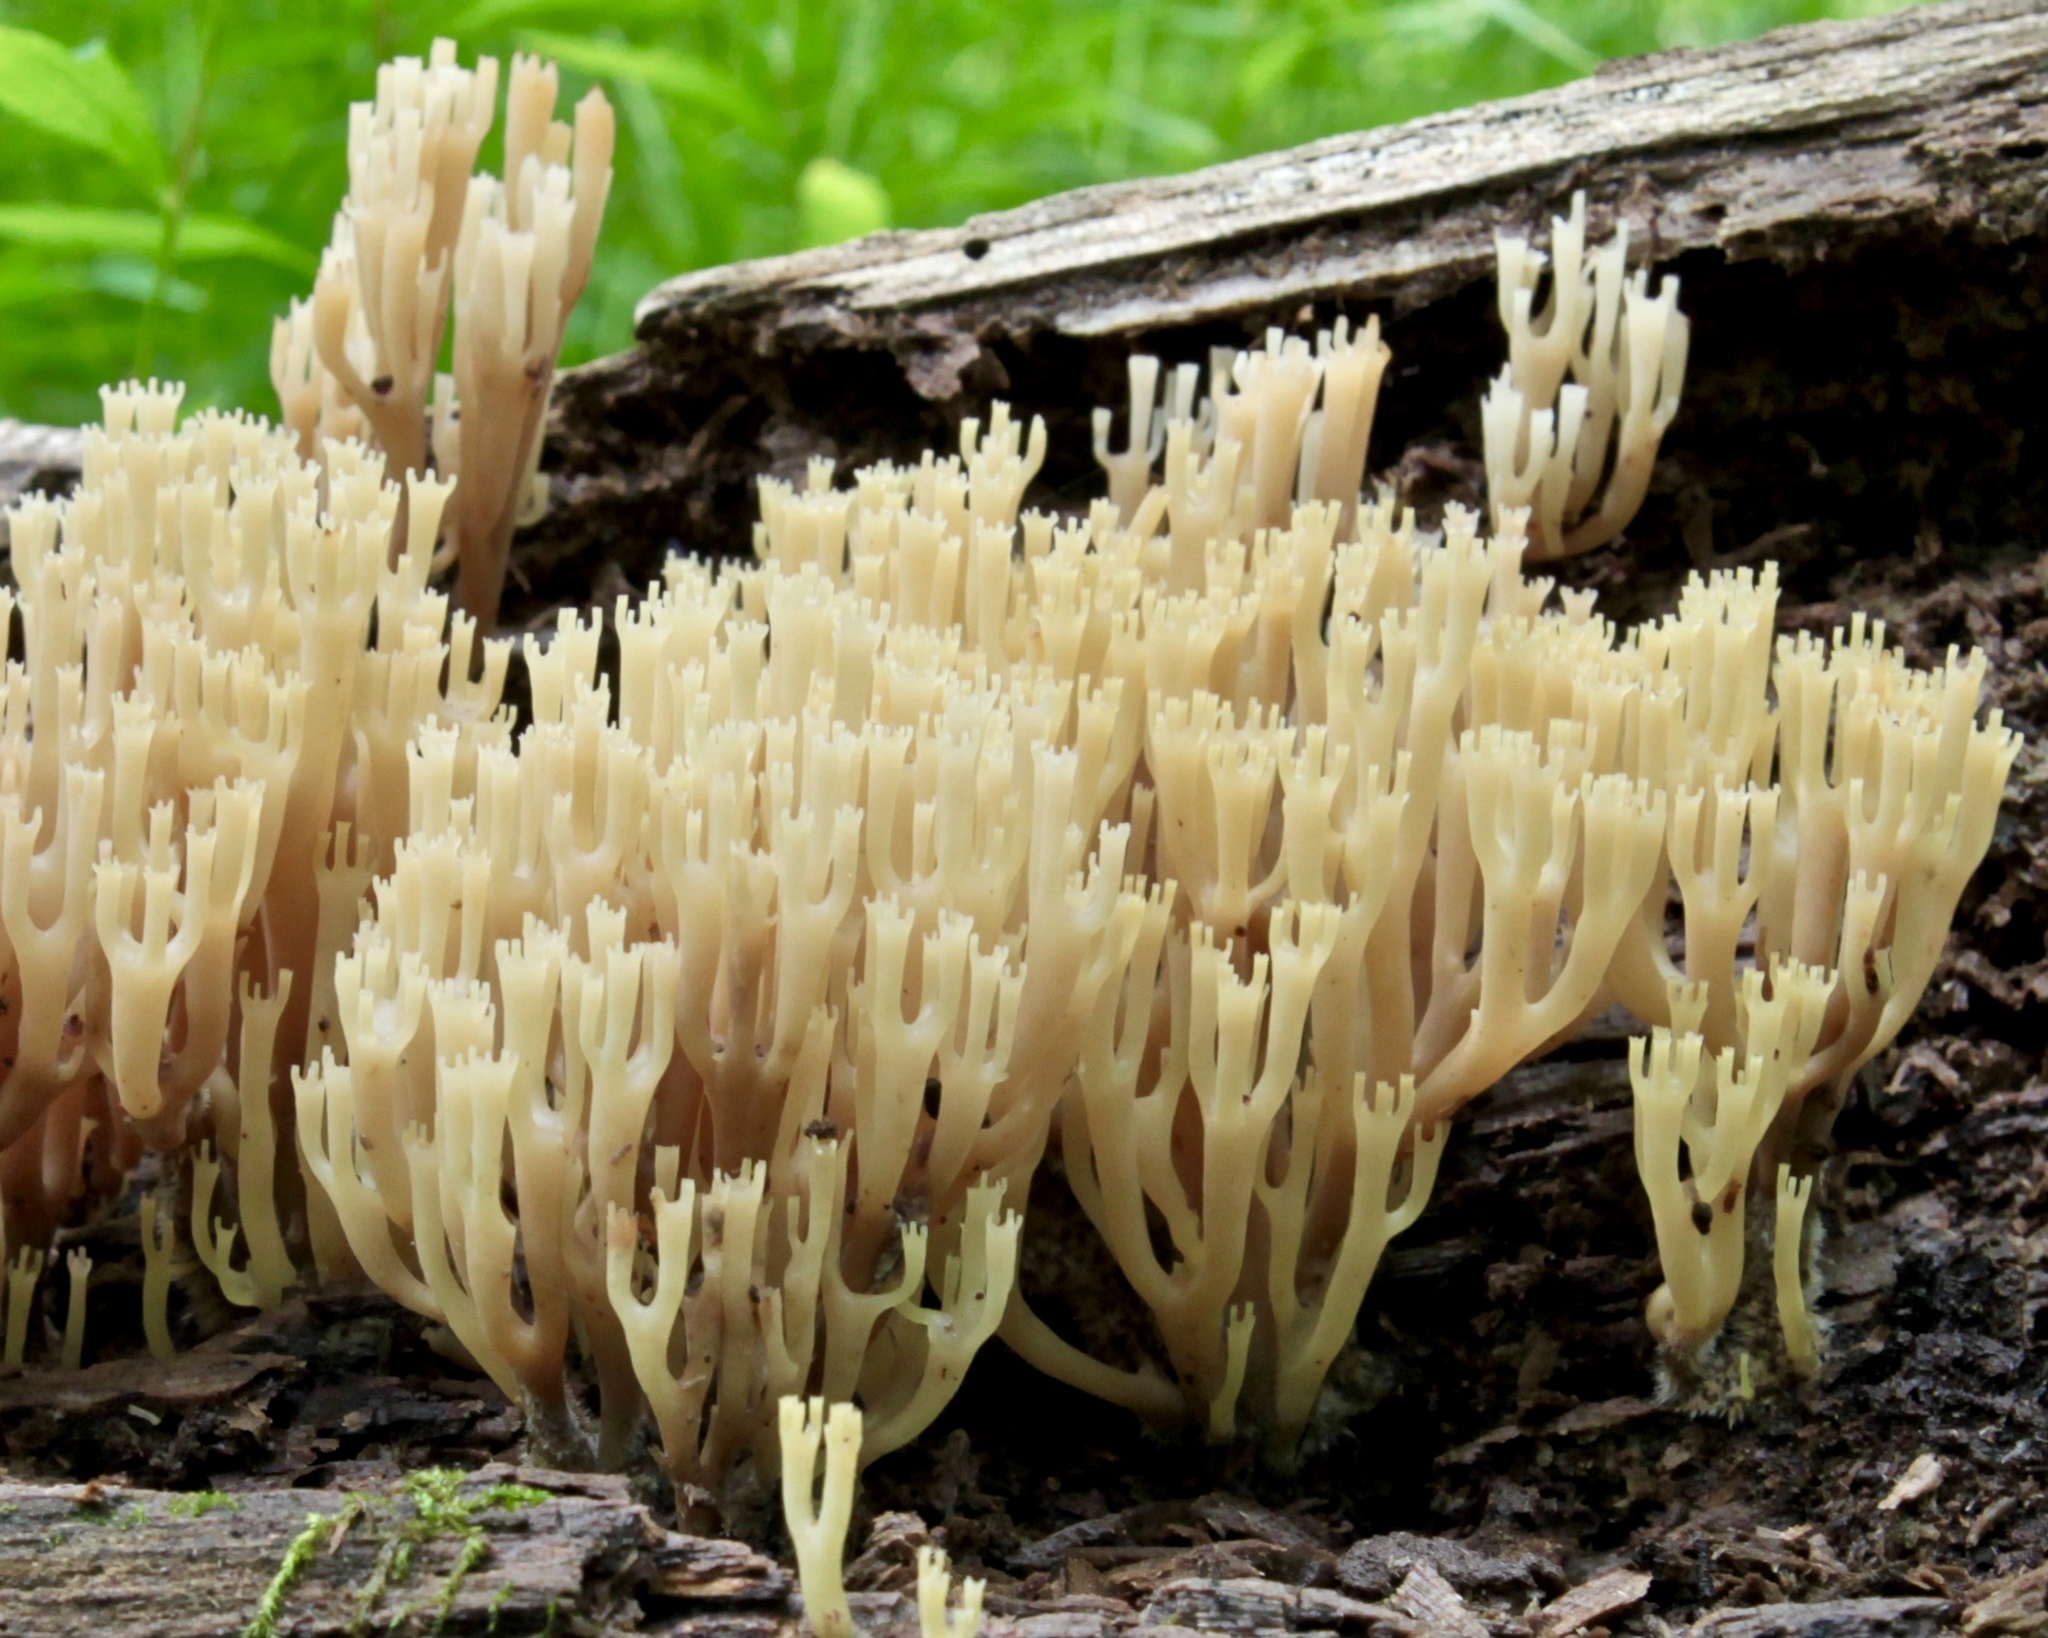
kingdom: Fungi
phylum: Basidiomycota
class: Agaricomycetes
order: Russulales
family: Auriscalpiaceae
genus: Artomyces
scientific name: Artomyces pyxidatus
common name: Crown-tipped coral fungus
